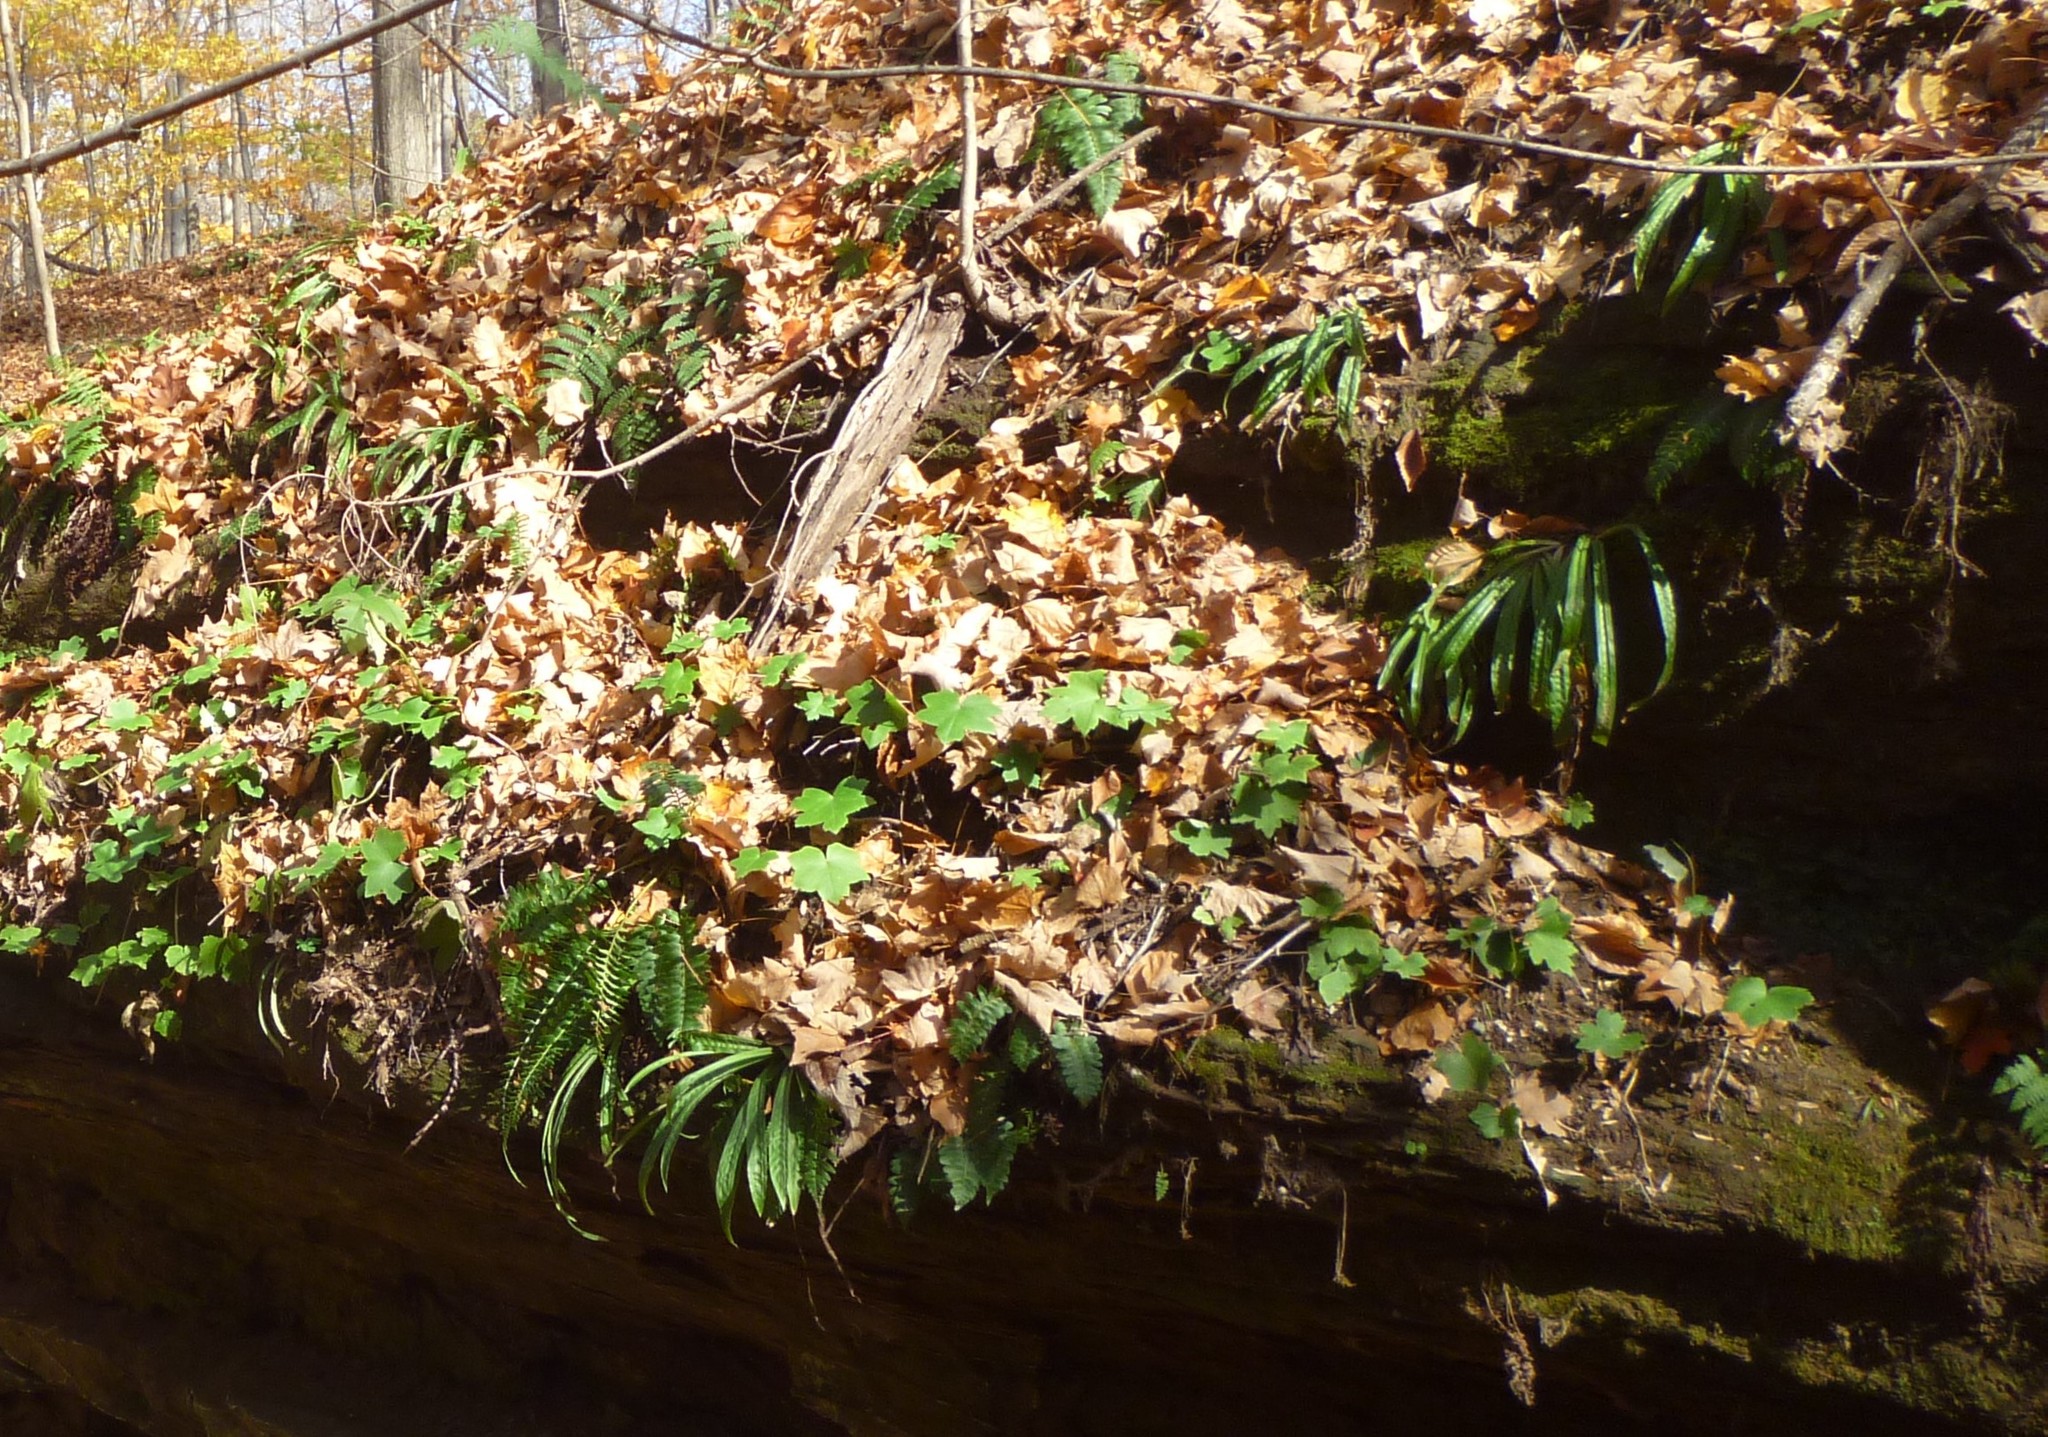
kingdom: Plantae
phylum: Tracheophyta
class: Polypodiopsida
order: Polypodiales
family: Dryopteridaceae
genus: Polystichum
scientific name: Polystichum acrostichoides
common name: Christmas fern
